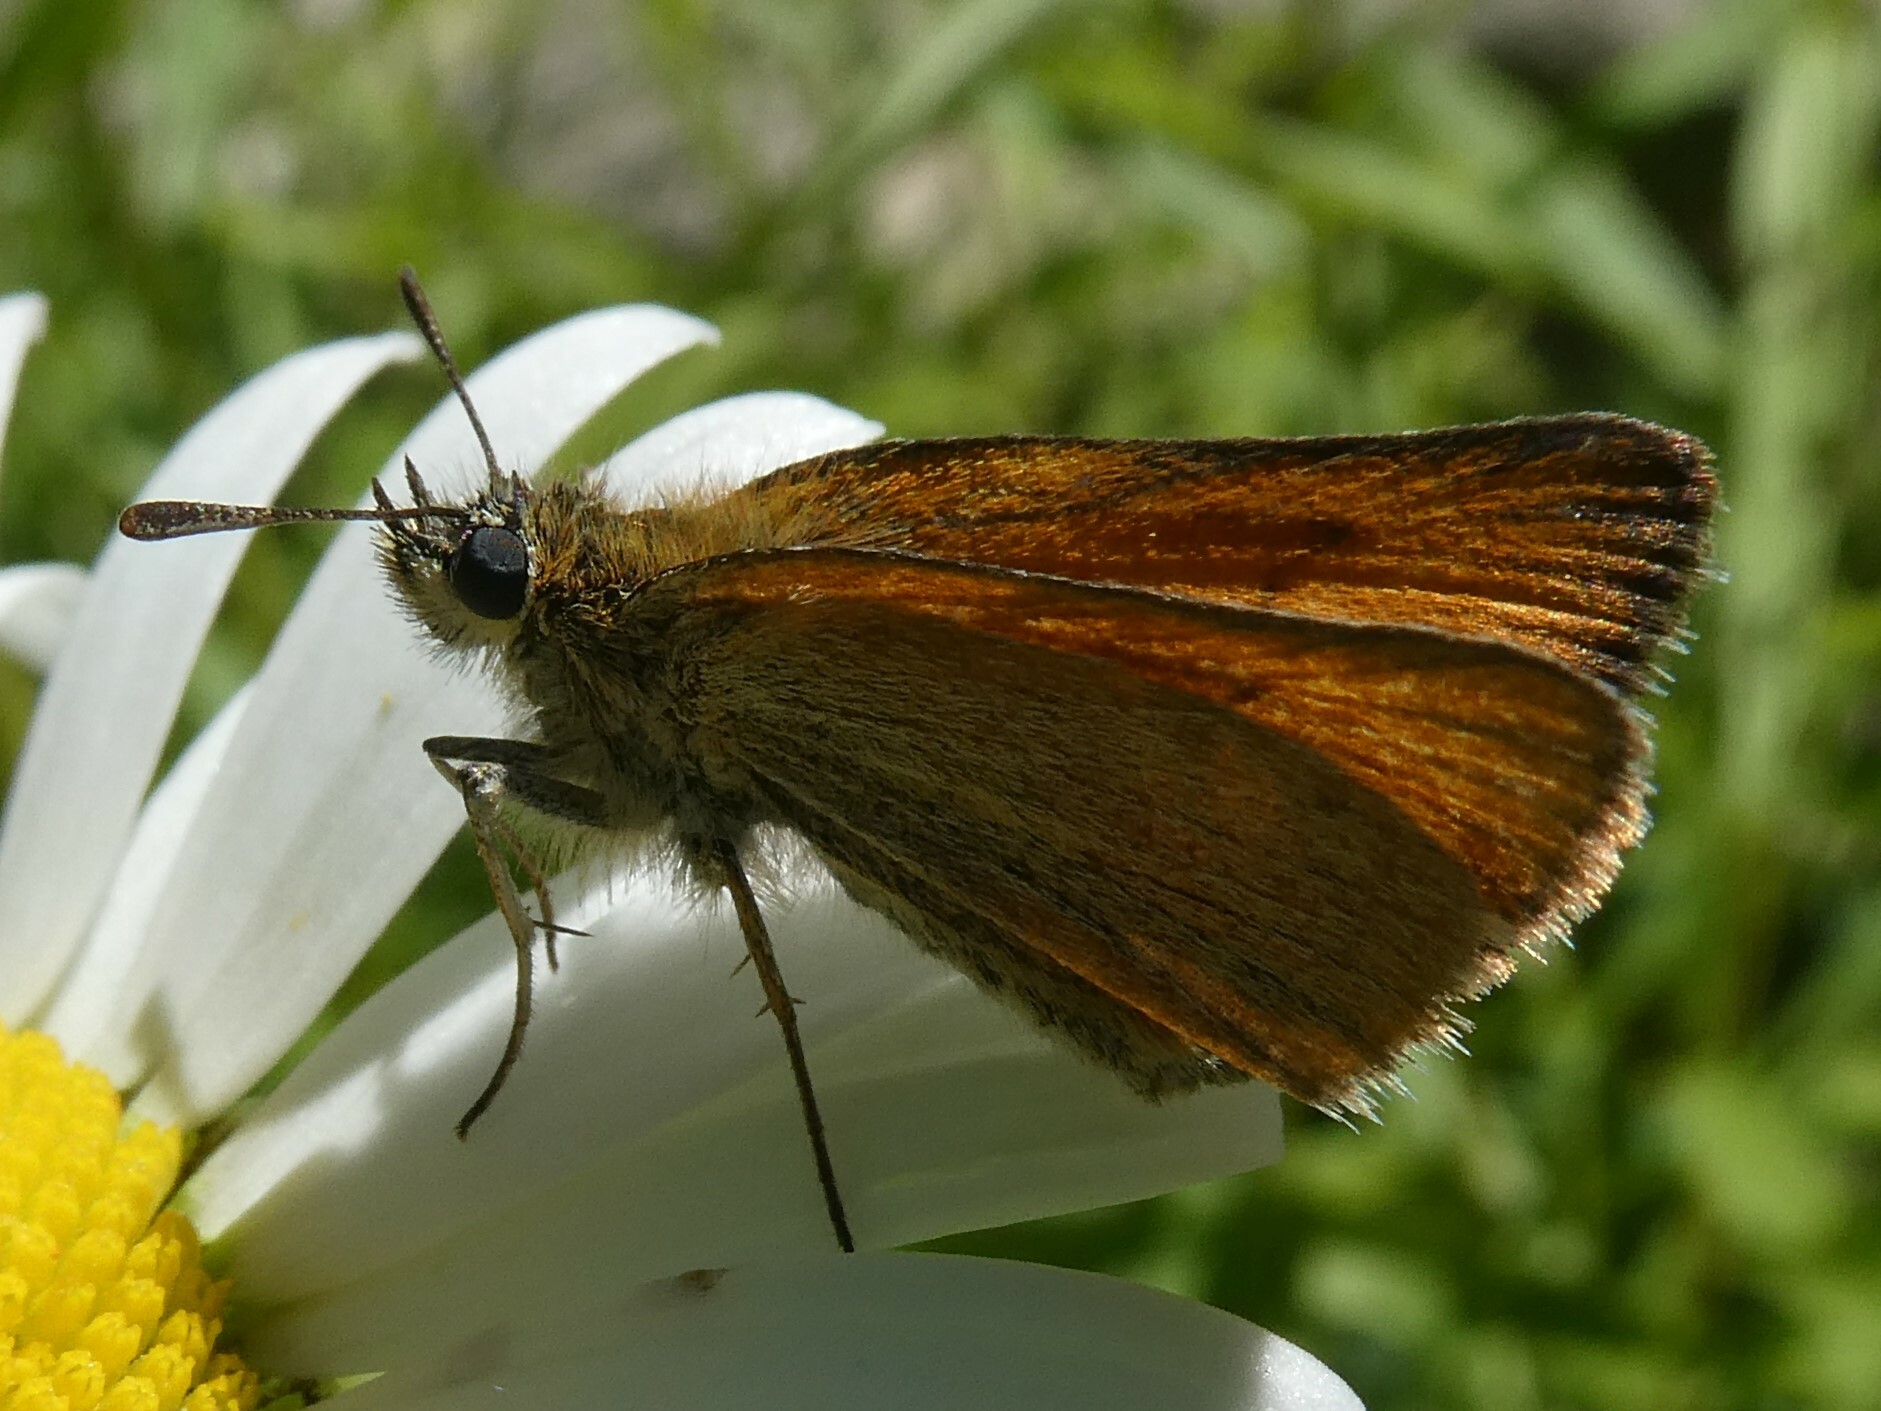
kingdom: Animalia
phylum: Arthropoda
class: Insecta
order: Lepidoptera
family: Hesperiidae
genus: Thymelicus
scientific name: Thymelicus lineola
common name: Essex skipper
